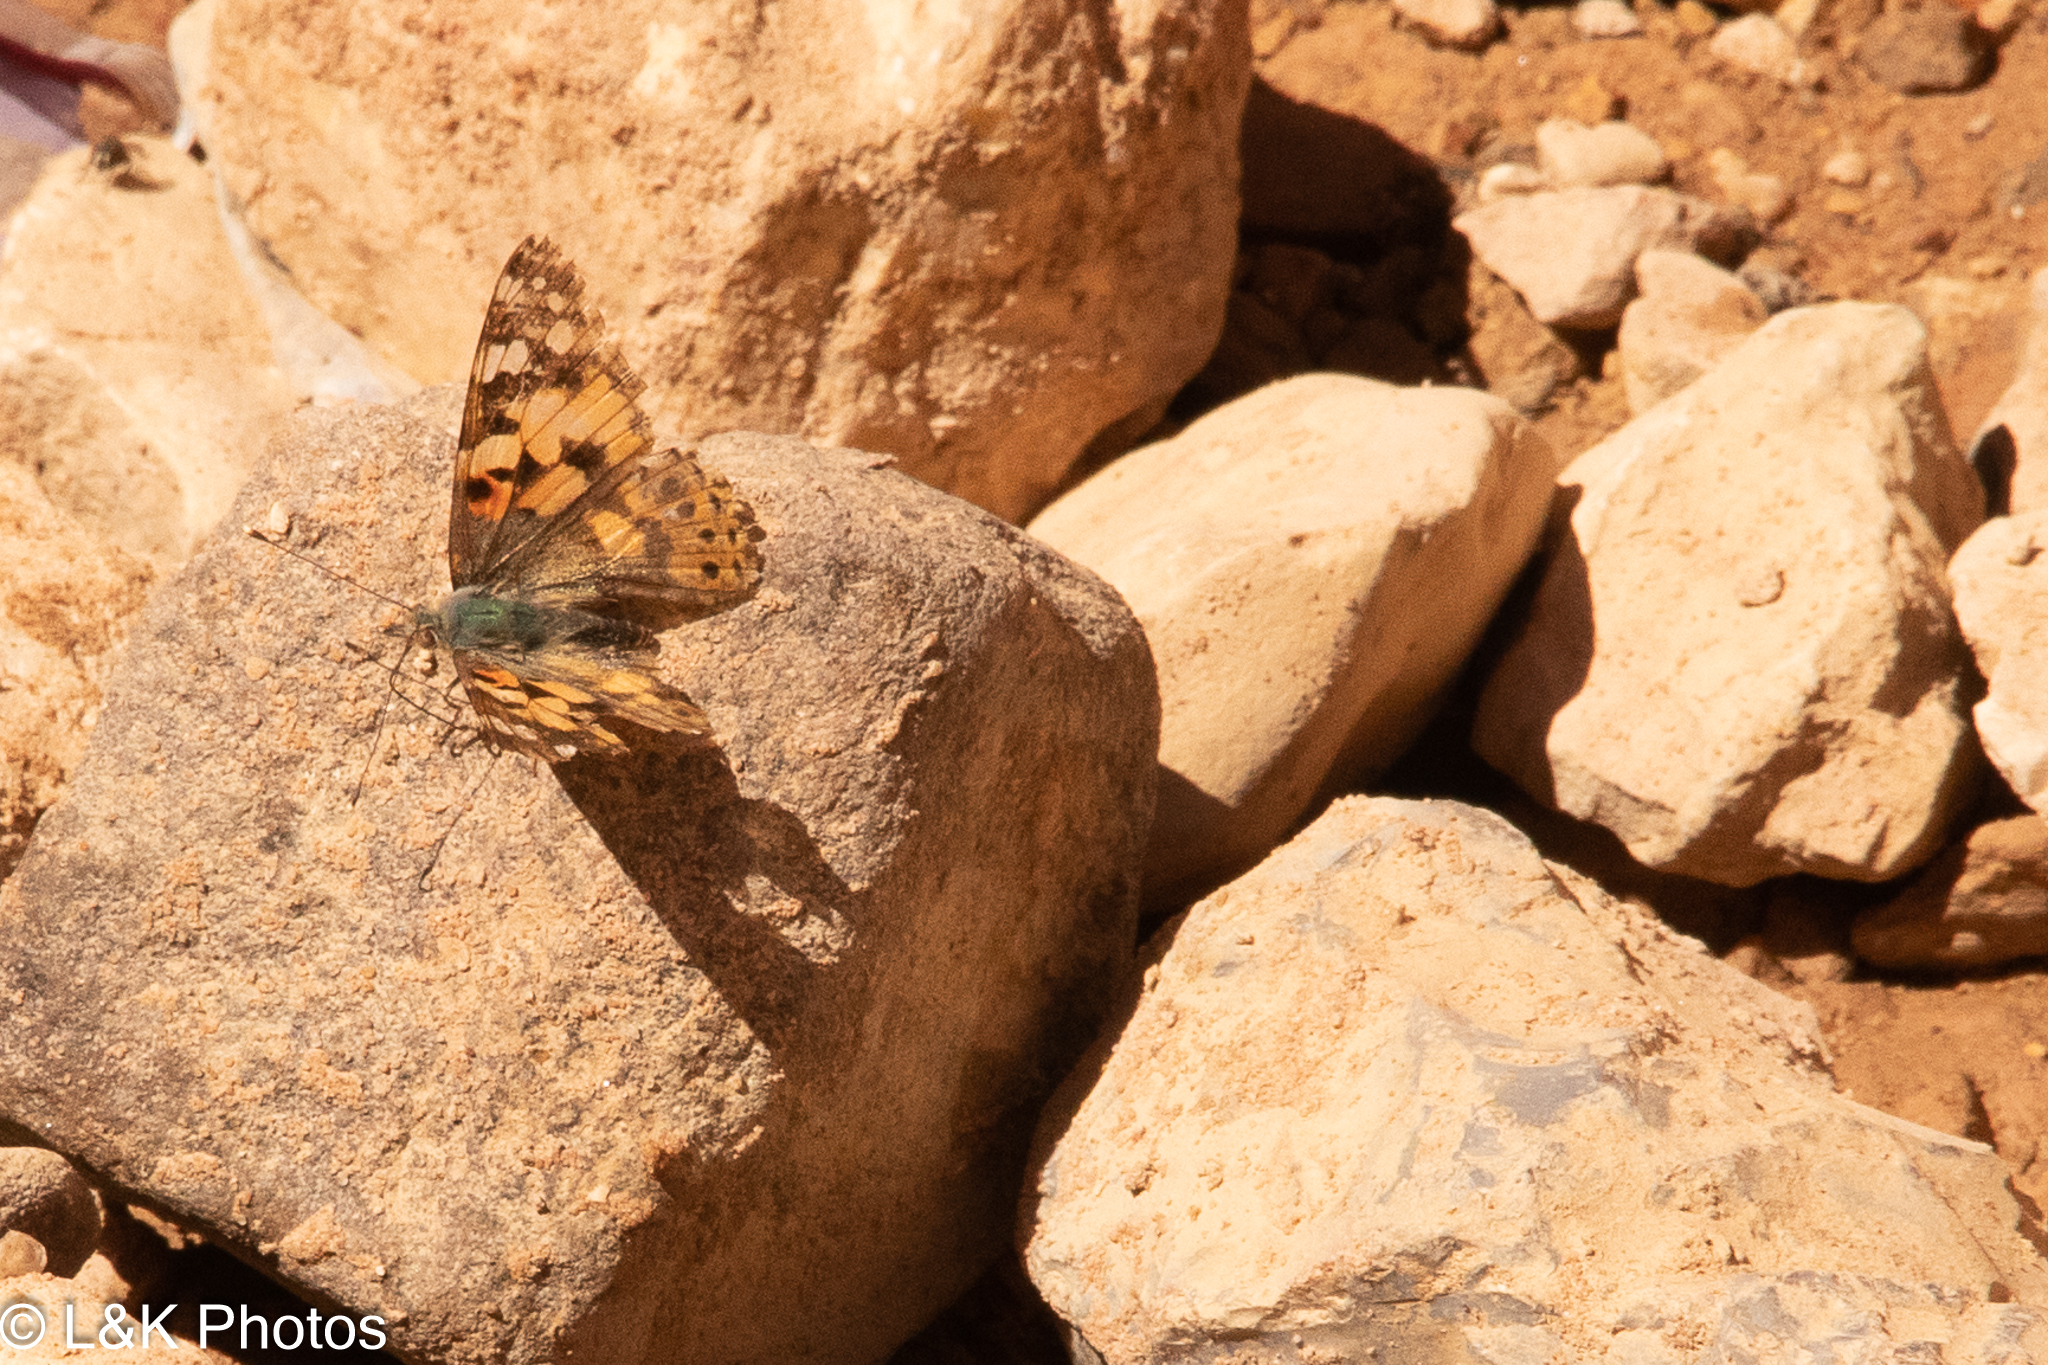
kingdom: Animalia
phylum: Arthropoda
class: Insecta
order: Lepidoptera
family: Nymphalidae
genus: Vanessa
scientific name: Vanessa cardui
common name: Painted lady
